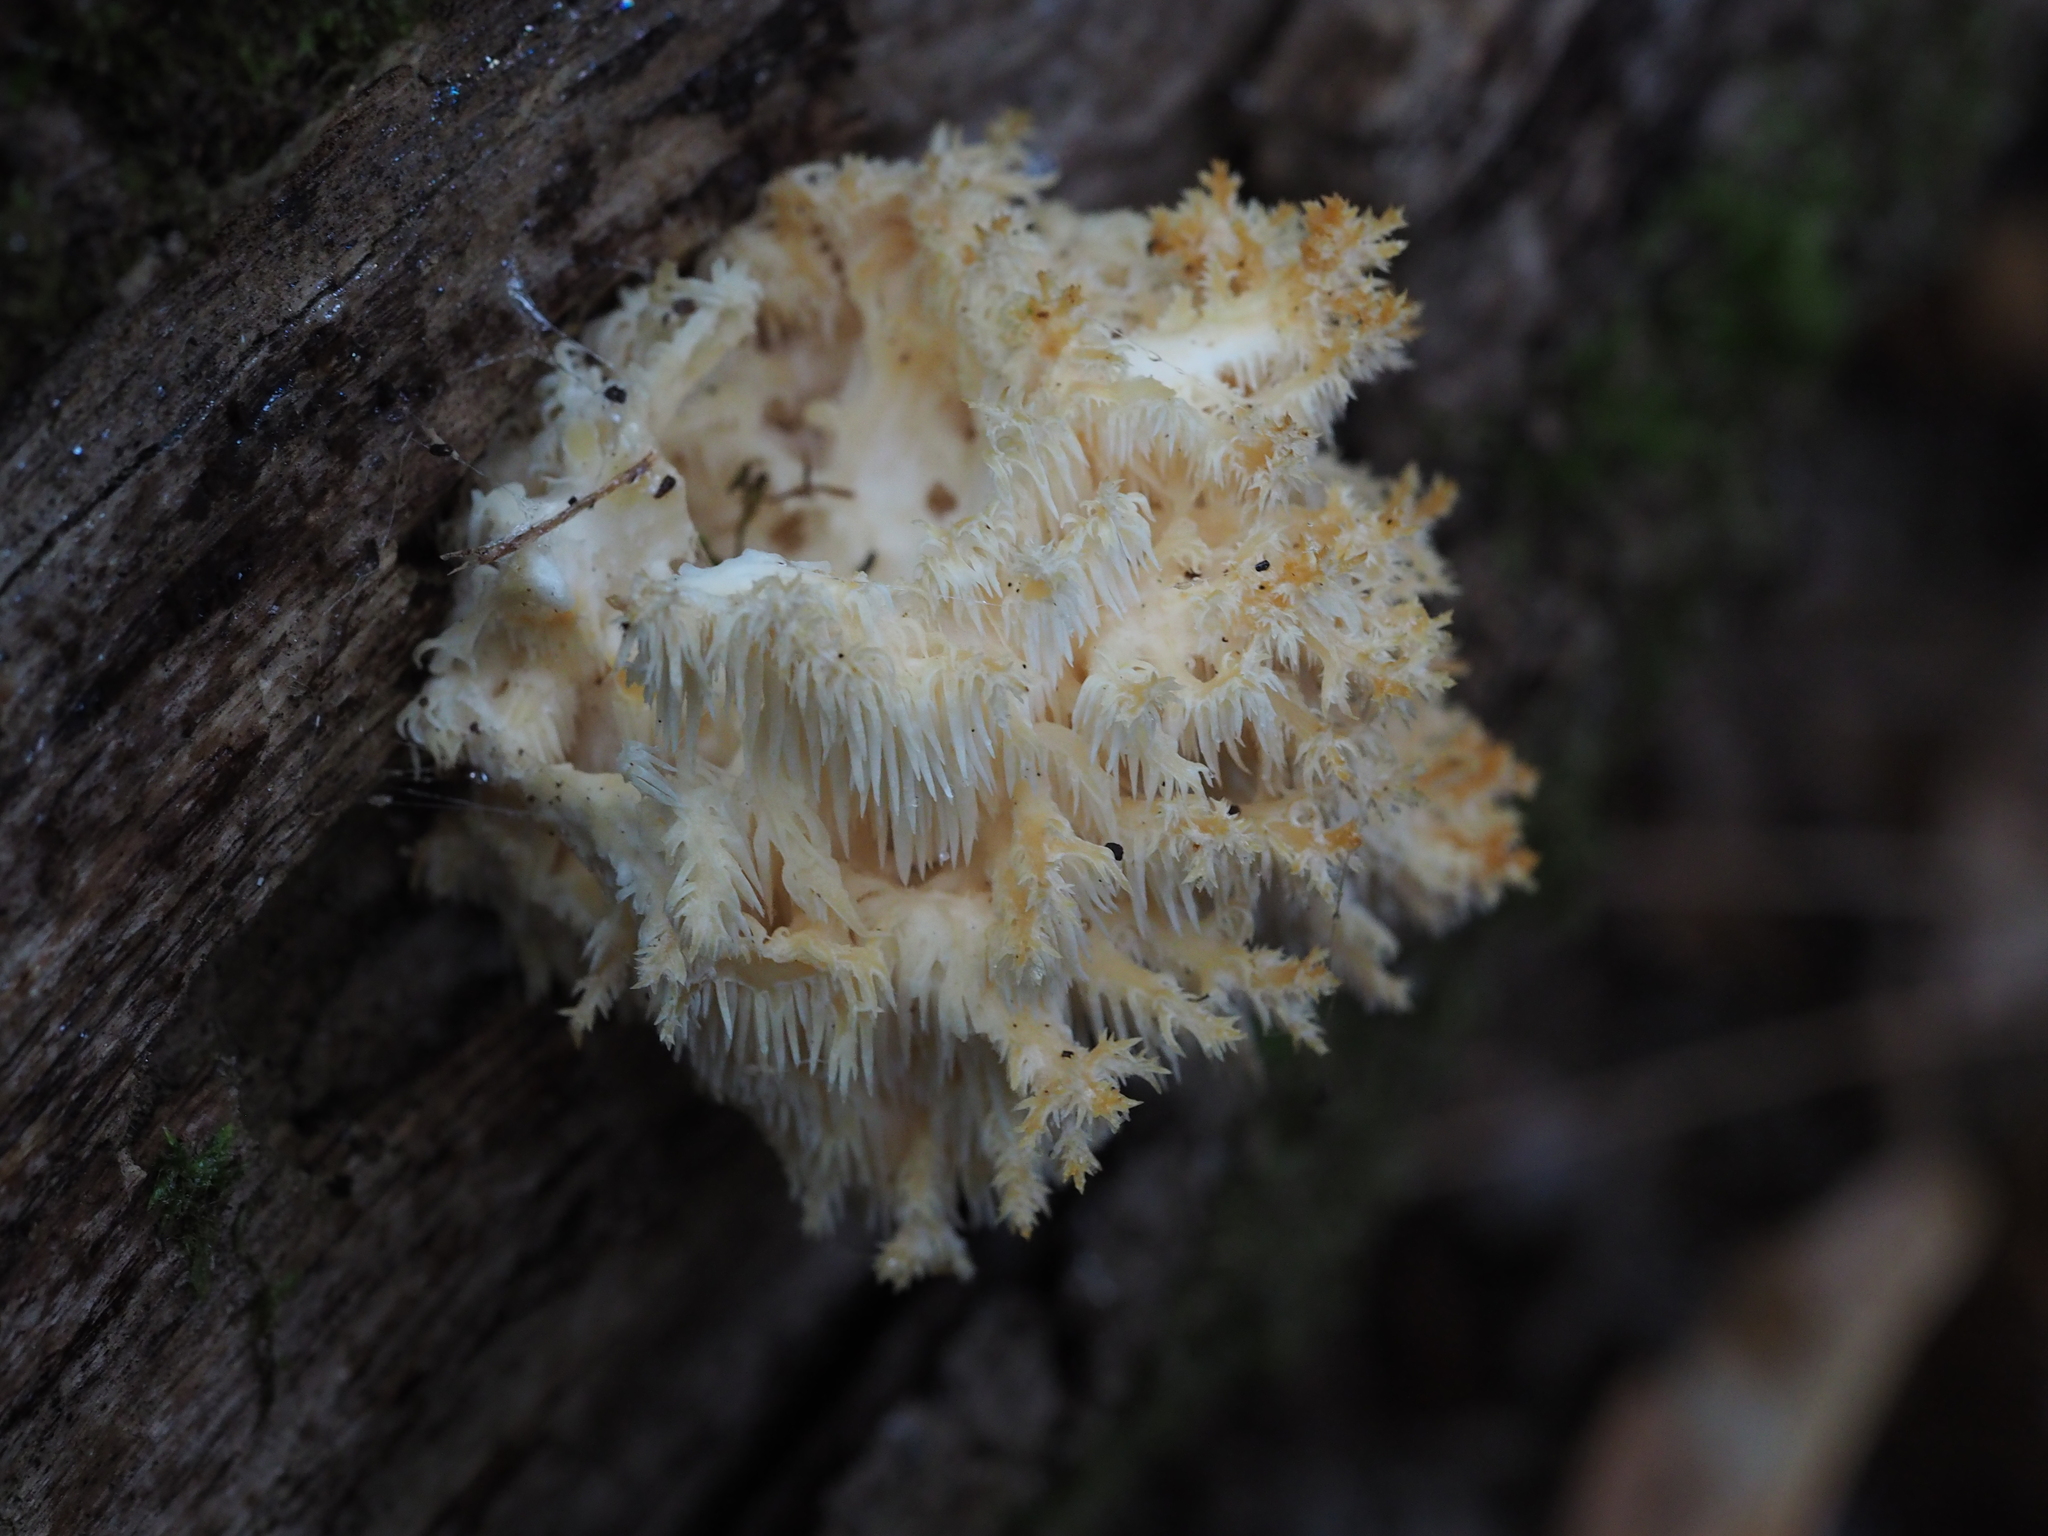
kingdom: Fungi
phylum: Basidiomycota
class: Agaricomycetes
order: Russulales
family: Hericiaceae
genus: Hericium
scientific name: Hericium coralloides
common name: Coral tooth
